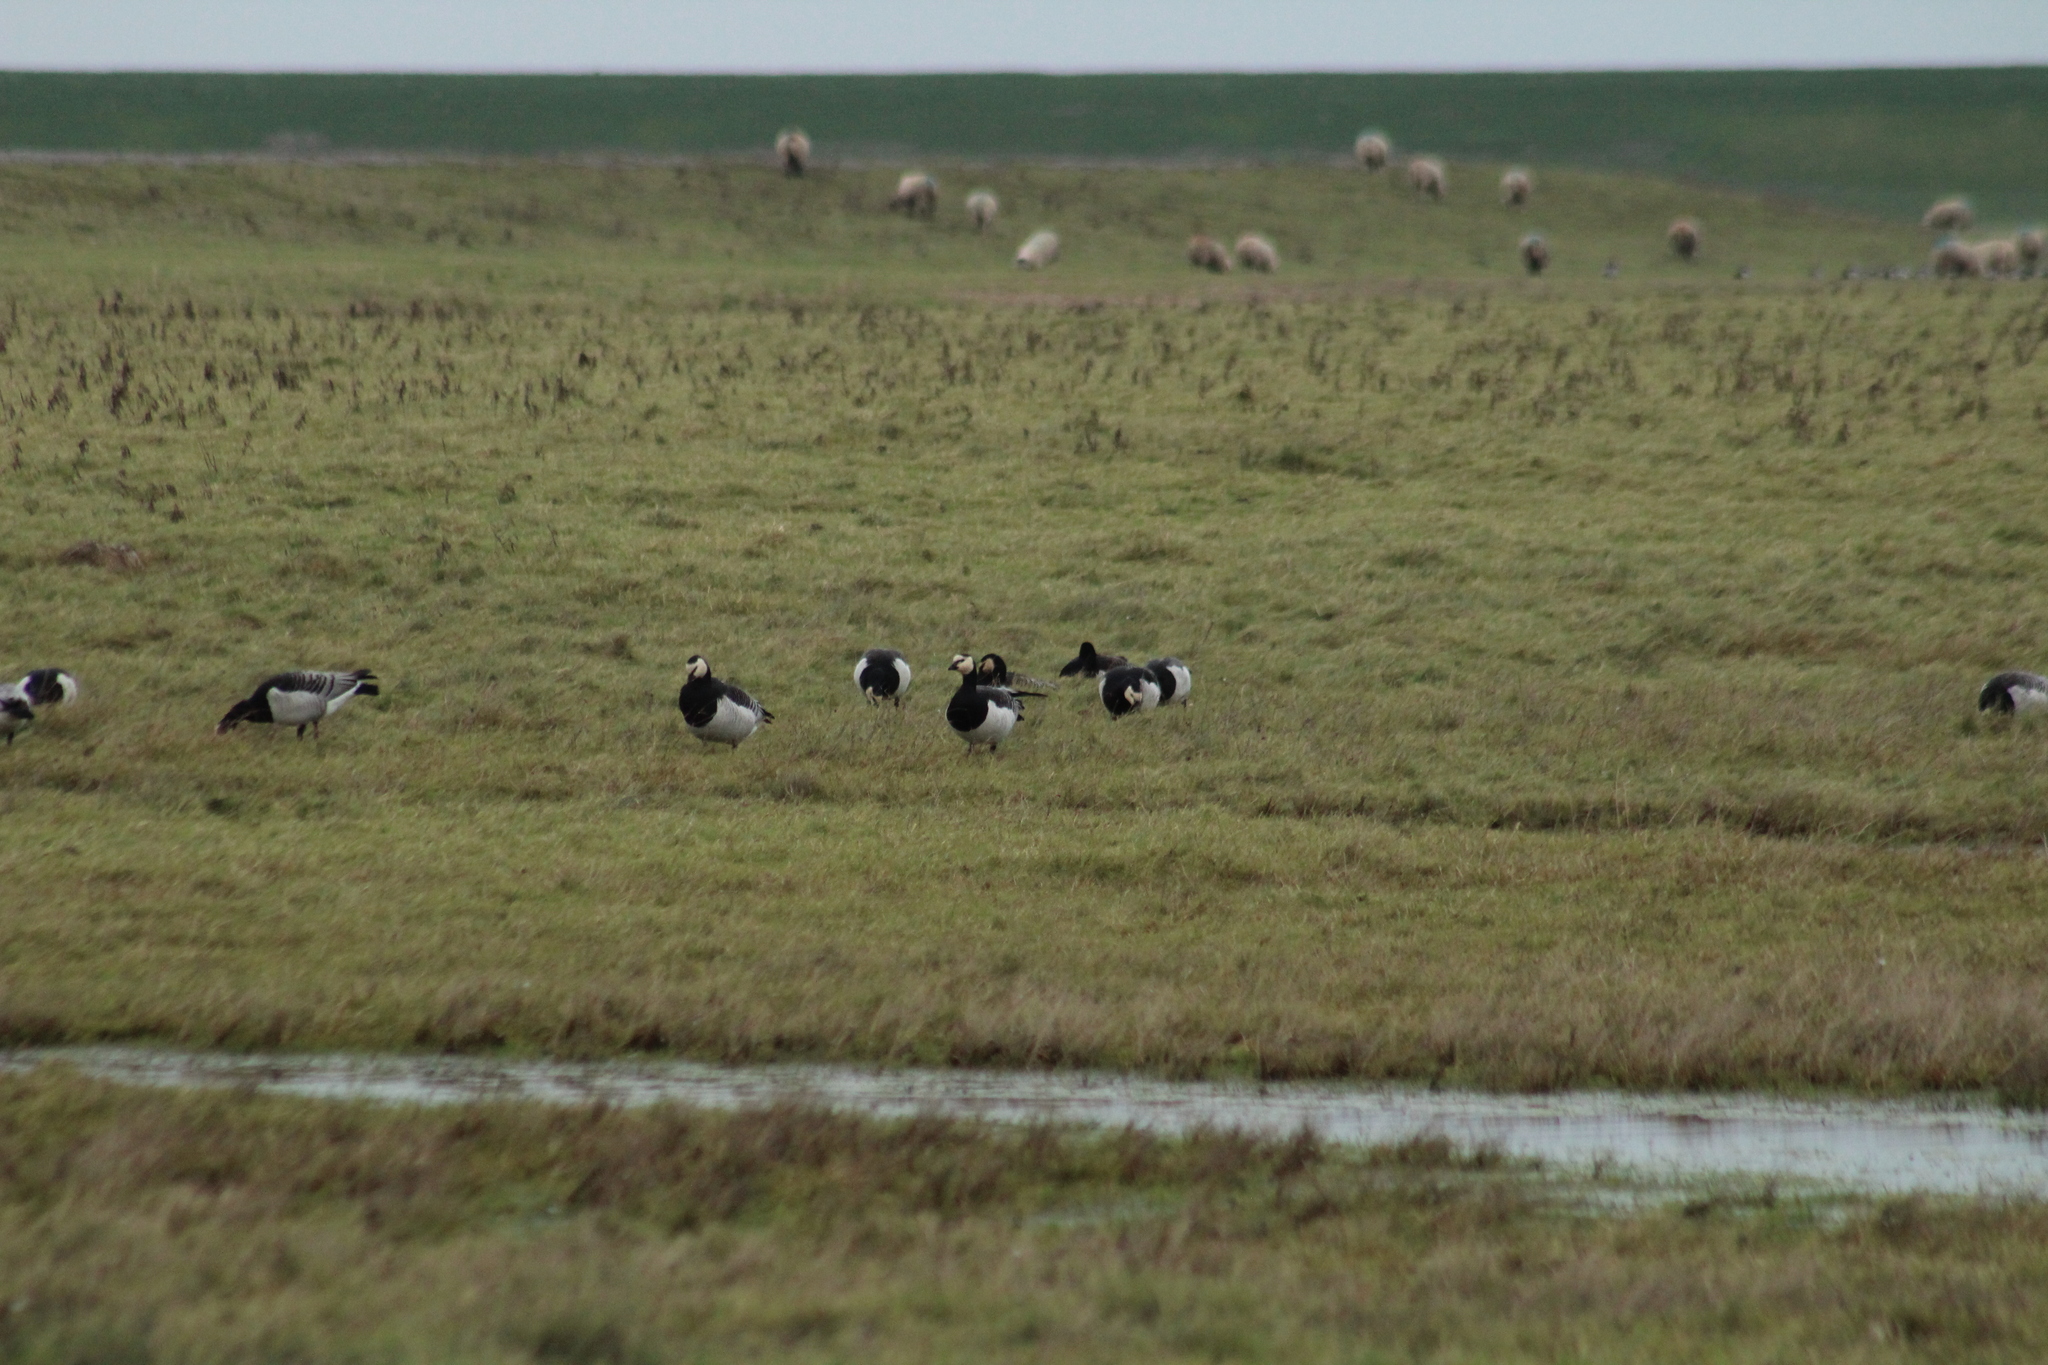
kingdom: Animalia
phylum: Chordata
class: Aves
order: Anseriformes
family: Anatidae
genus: Branta
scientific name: Branta leucopsis
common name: Barnacle goose
